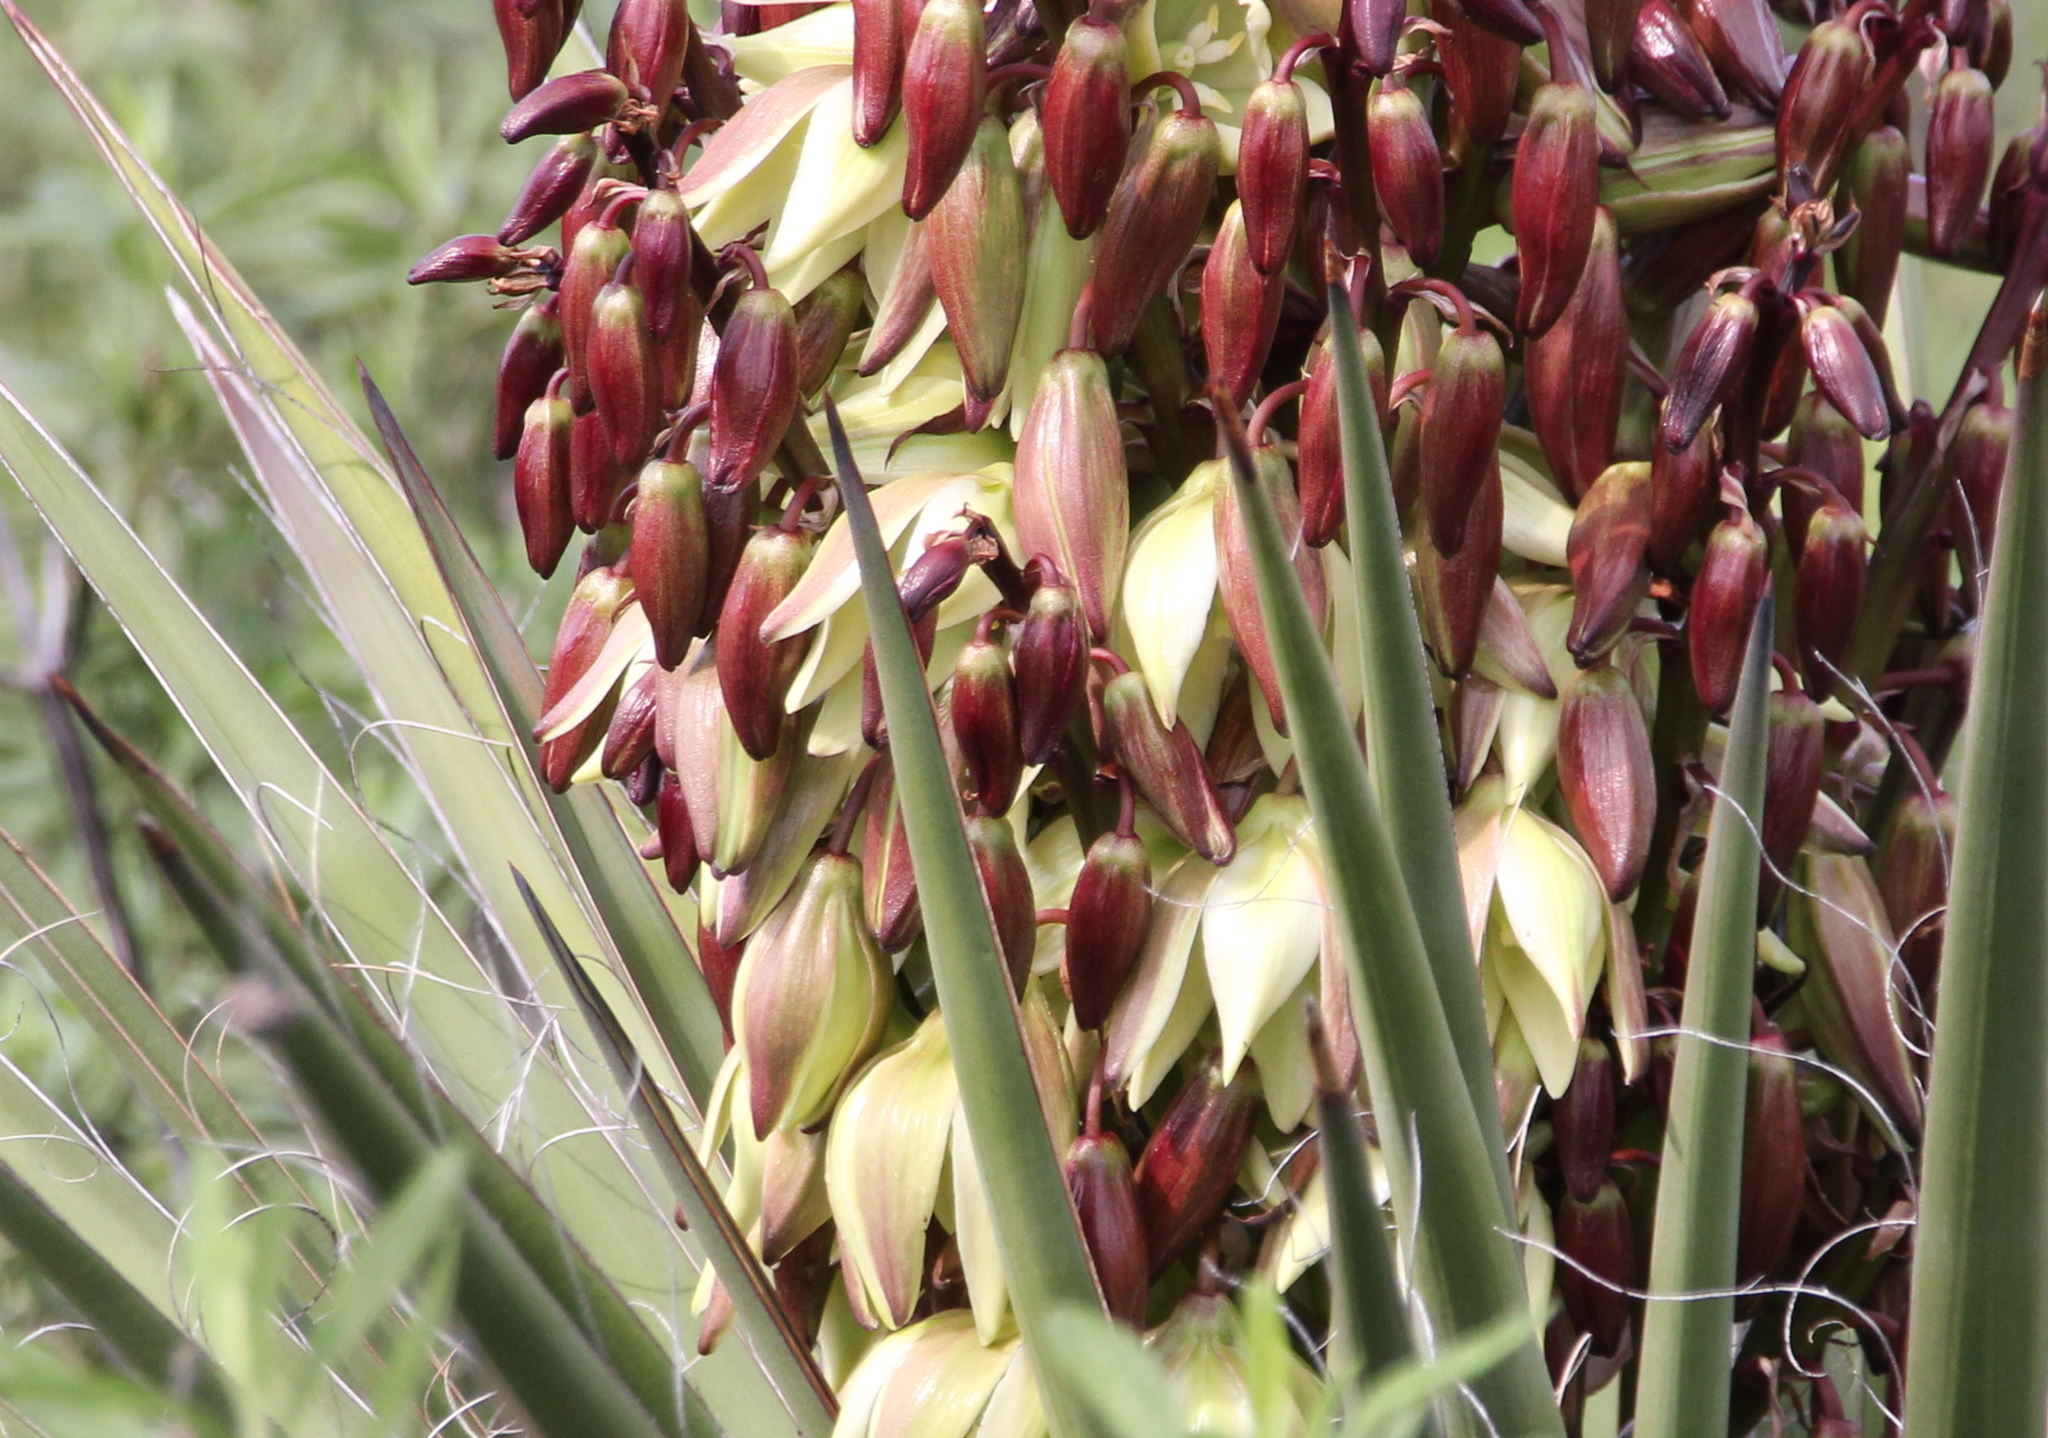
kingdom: Plantae
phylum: Tracheophyta
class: Liliopsida
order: Asparagales
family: Asparagaceae
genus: Yucca
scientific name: Yucca schidigera
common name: Mojave yucca
